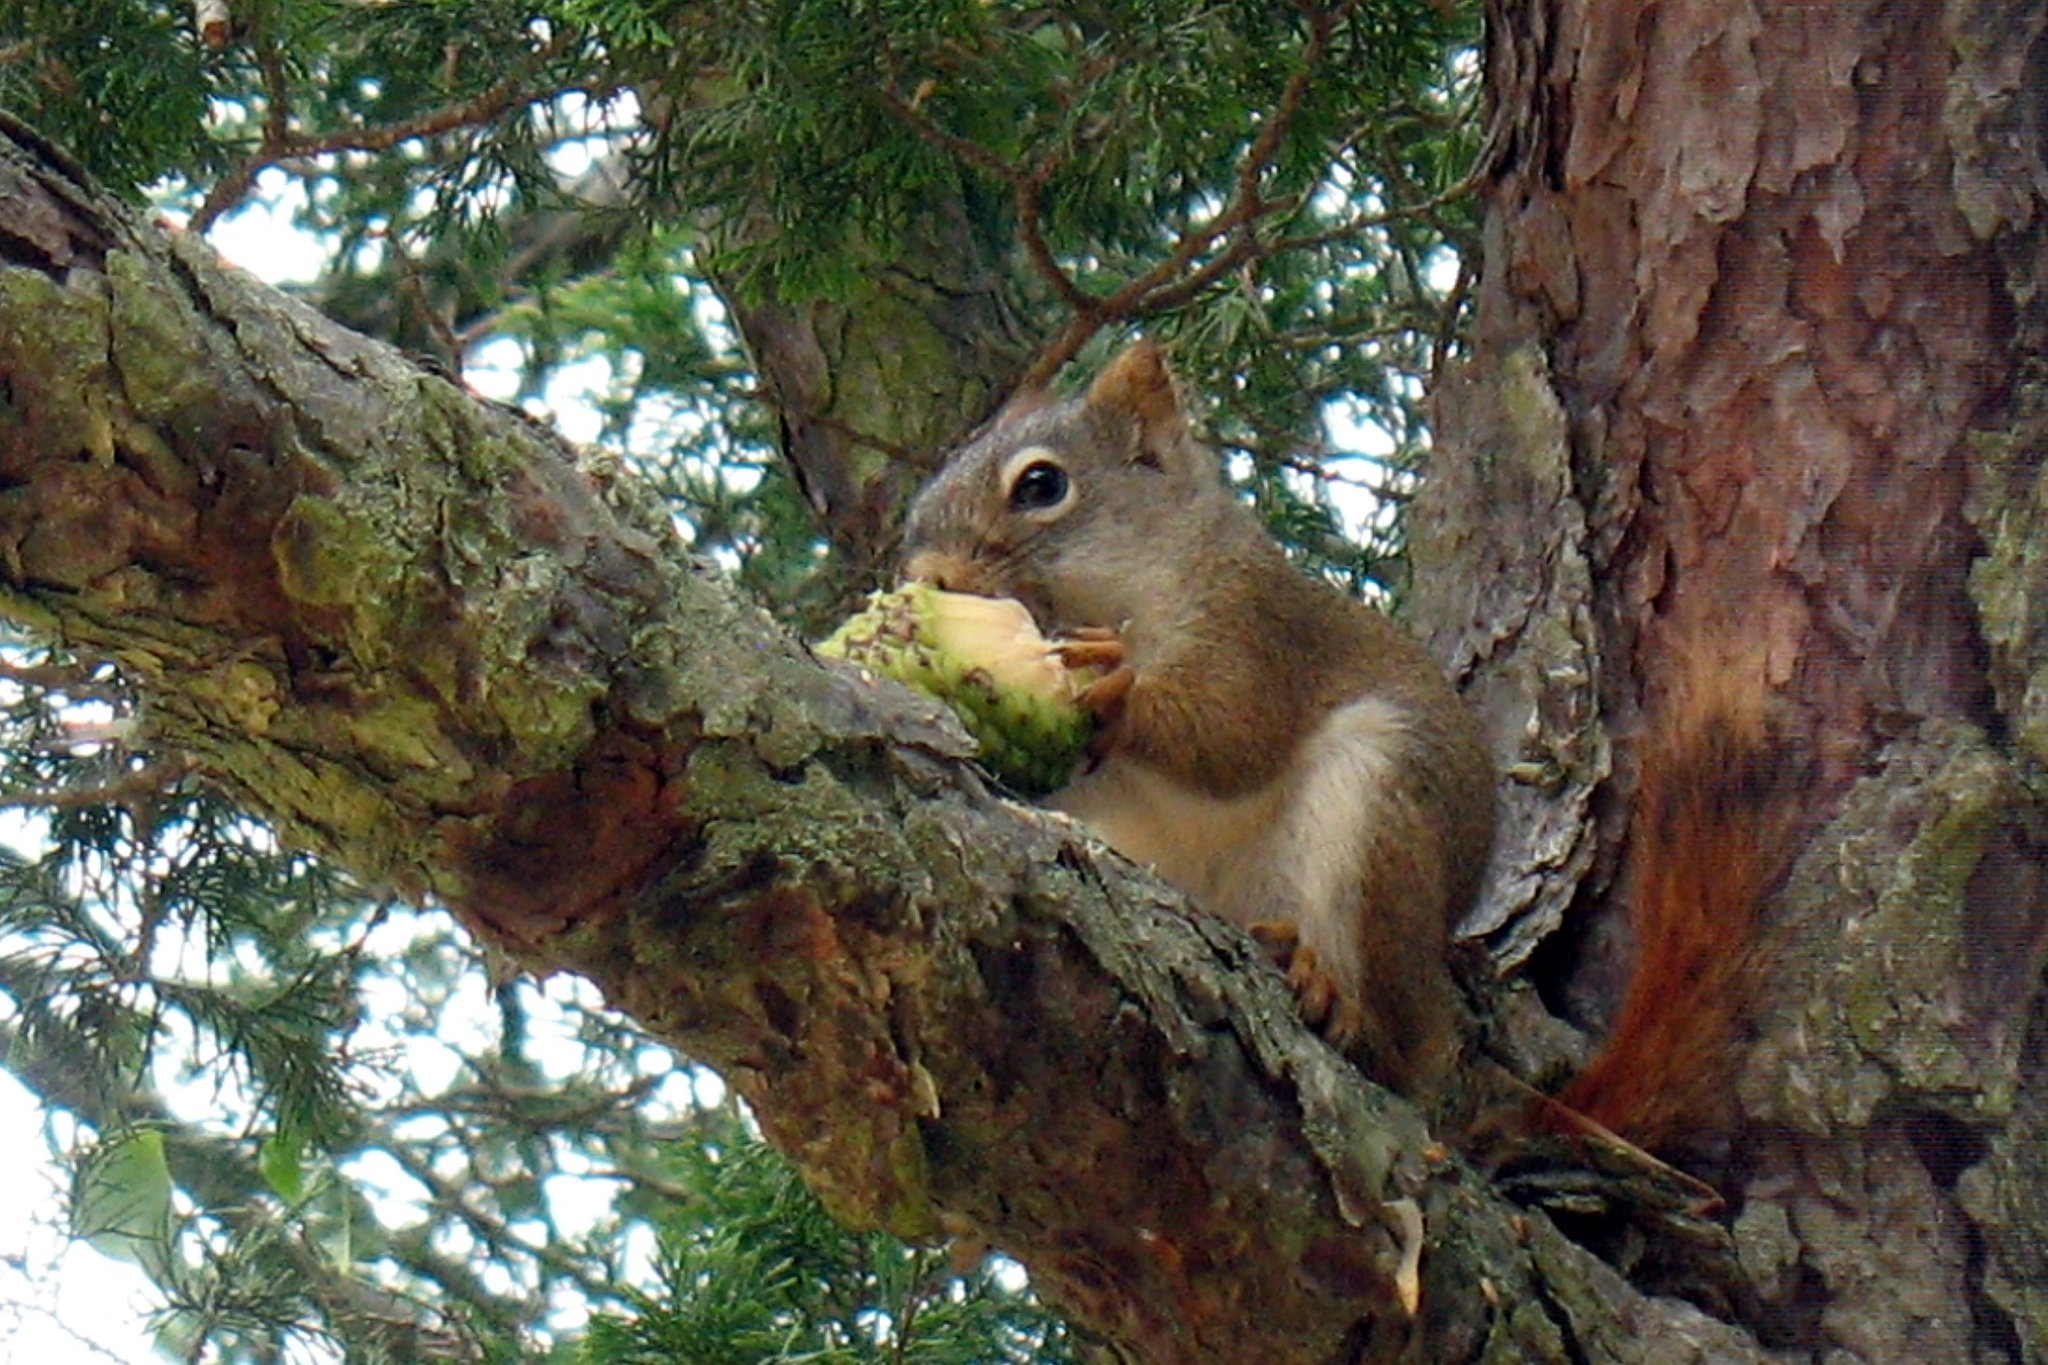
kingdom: Animalia
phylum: Chordata
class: Mammalia
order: Rodentia
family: Sciuridae
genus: Tamiasciurus
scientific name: Tamiasciurus hudsonicus
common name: Red squirrel
